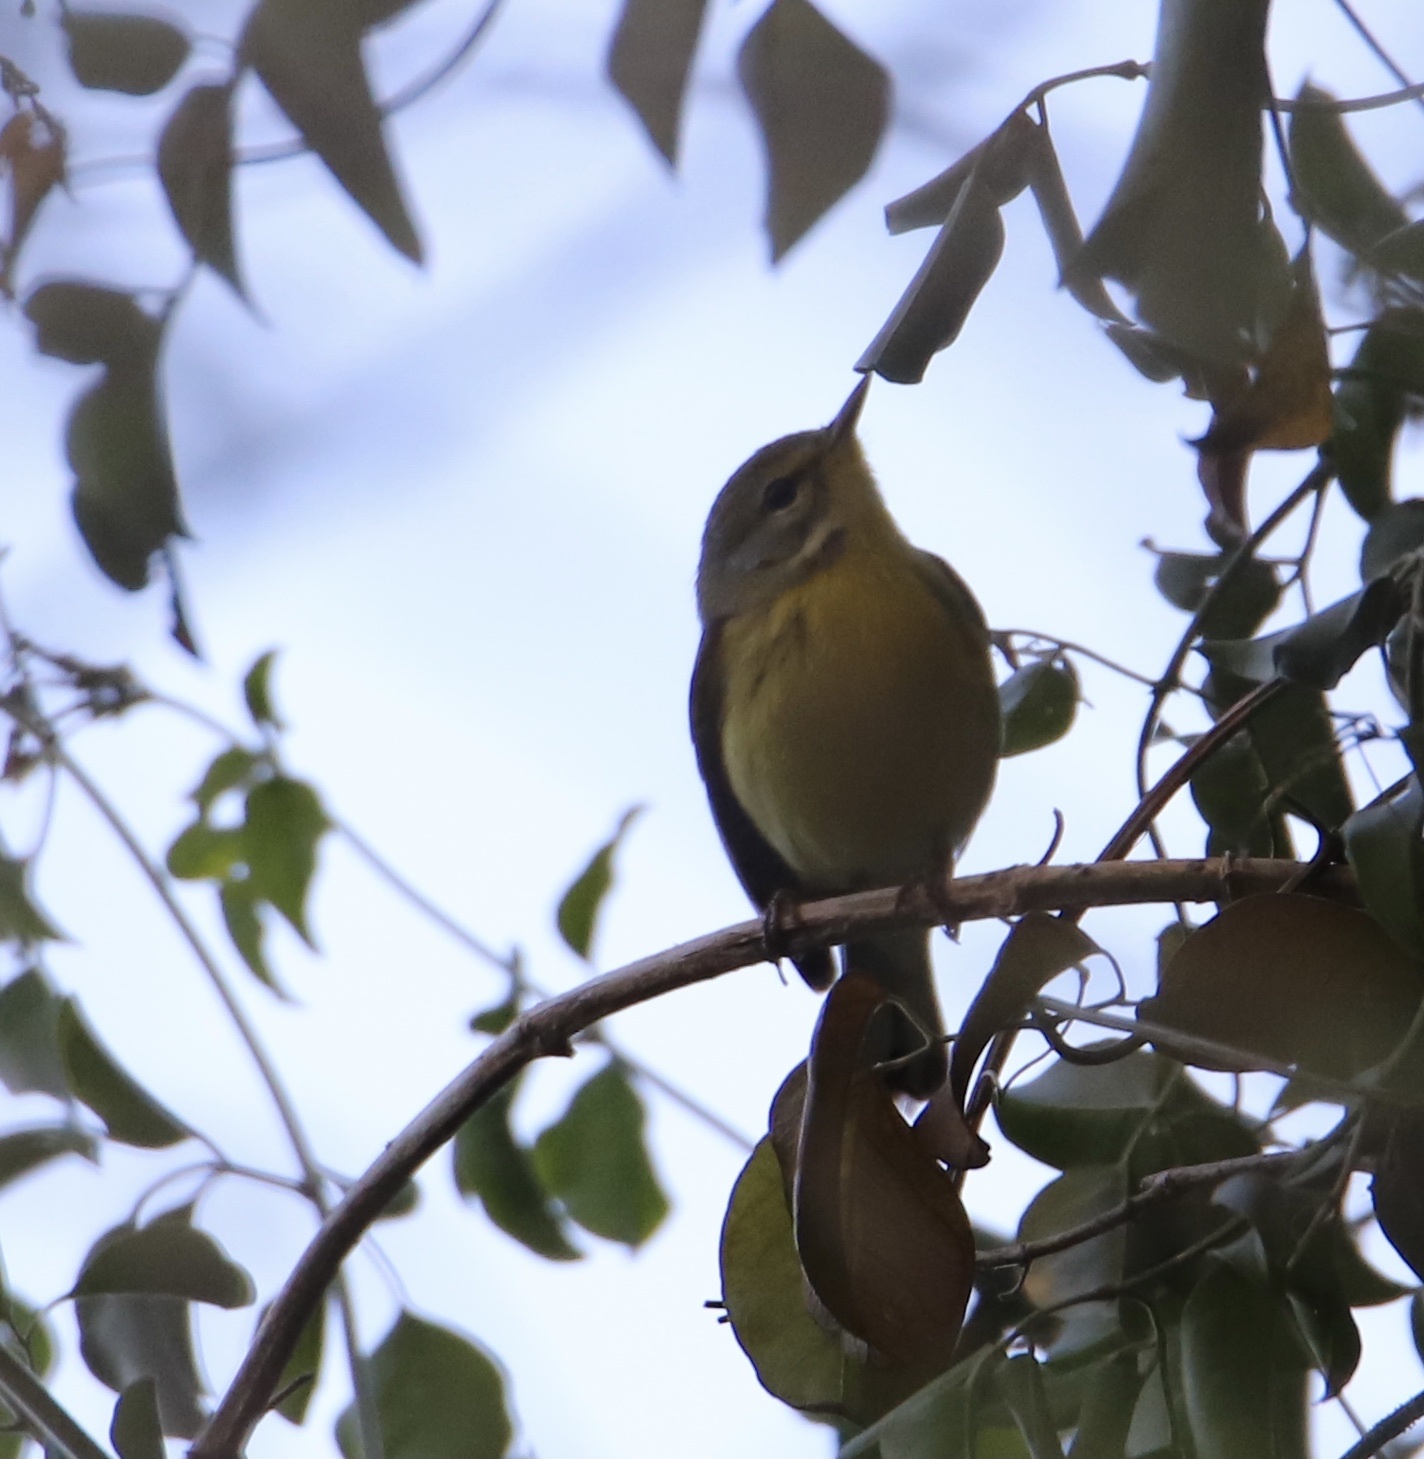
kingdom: Animalia
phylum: Chordata
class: Aves
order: Passeriformes
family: Parulidae
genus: Setophaga
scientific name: Setophaga discolor
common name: Prairie warbler
